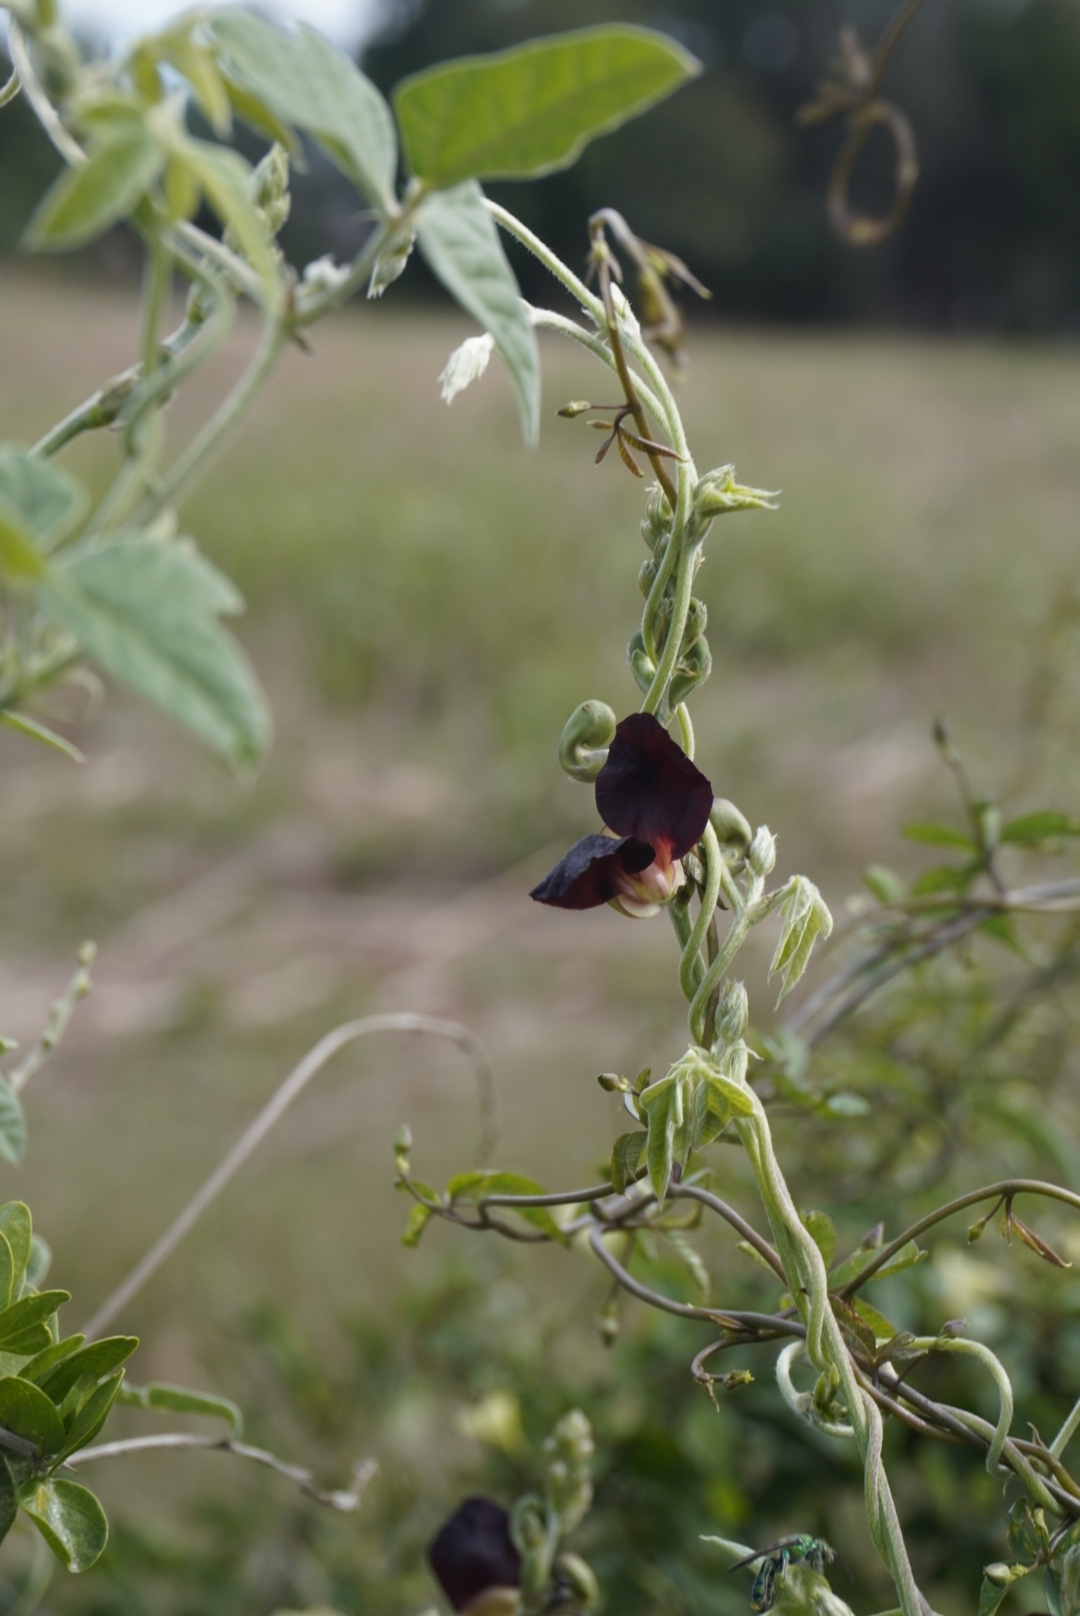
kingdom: Plantae
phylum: Tracheophyta
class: Magnoliopsida
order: Fabales
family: Fabaceae
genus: Macroptilium
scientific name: Macroptilium atropurpureum
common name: Purple bushbean
